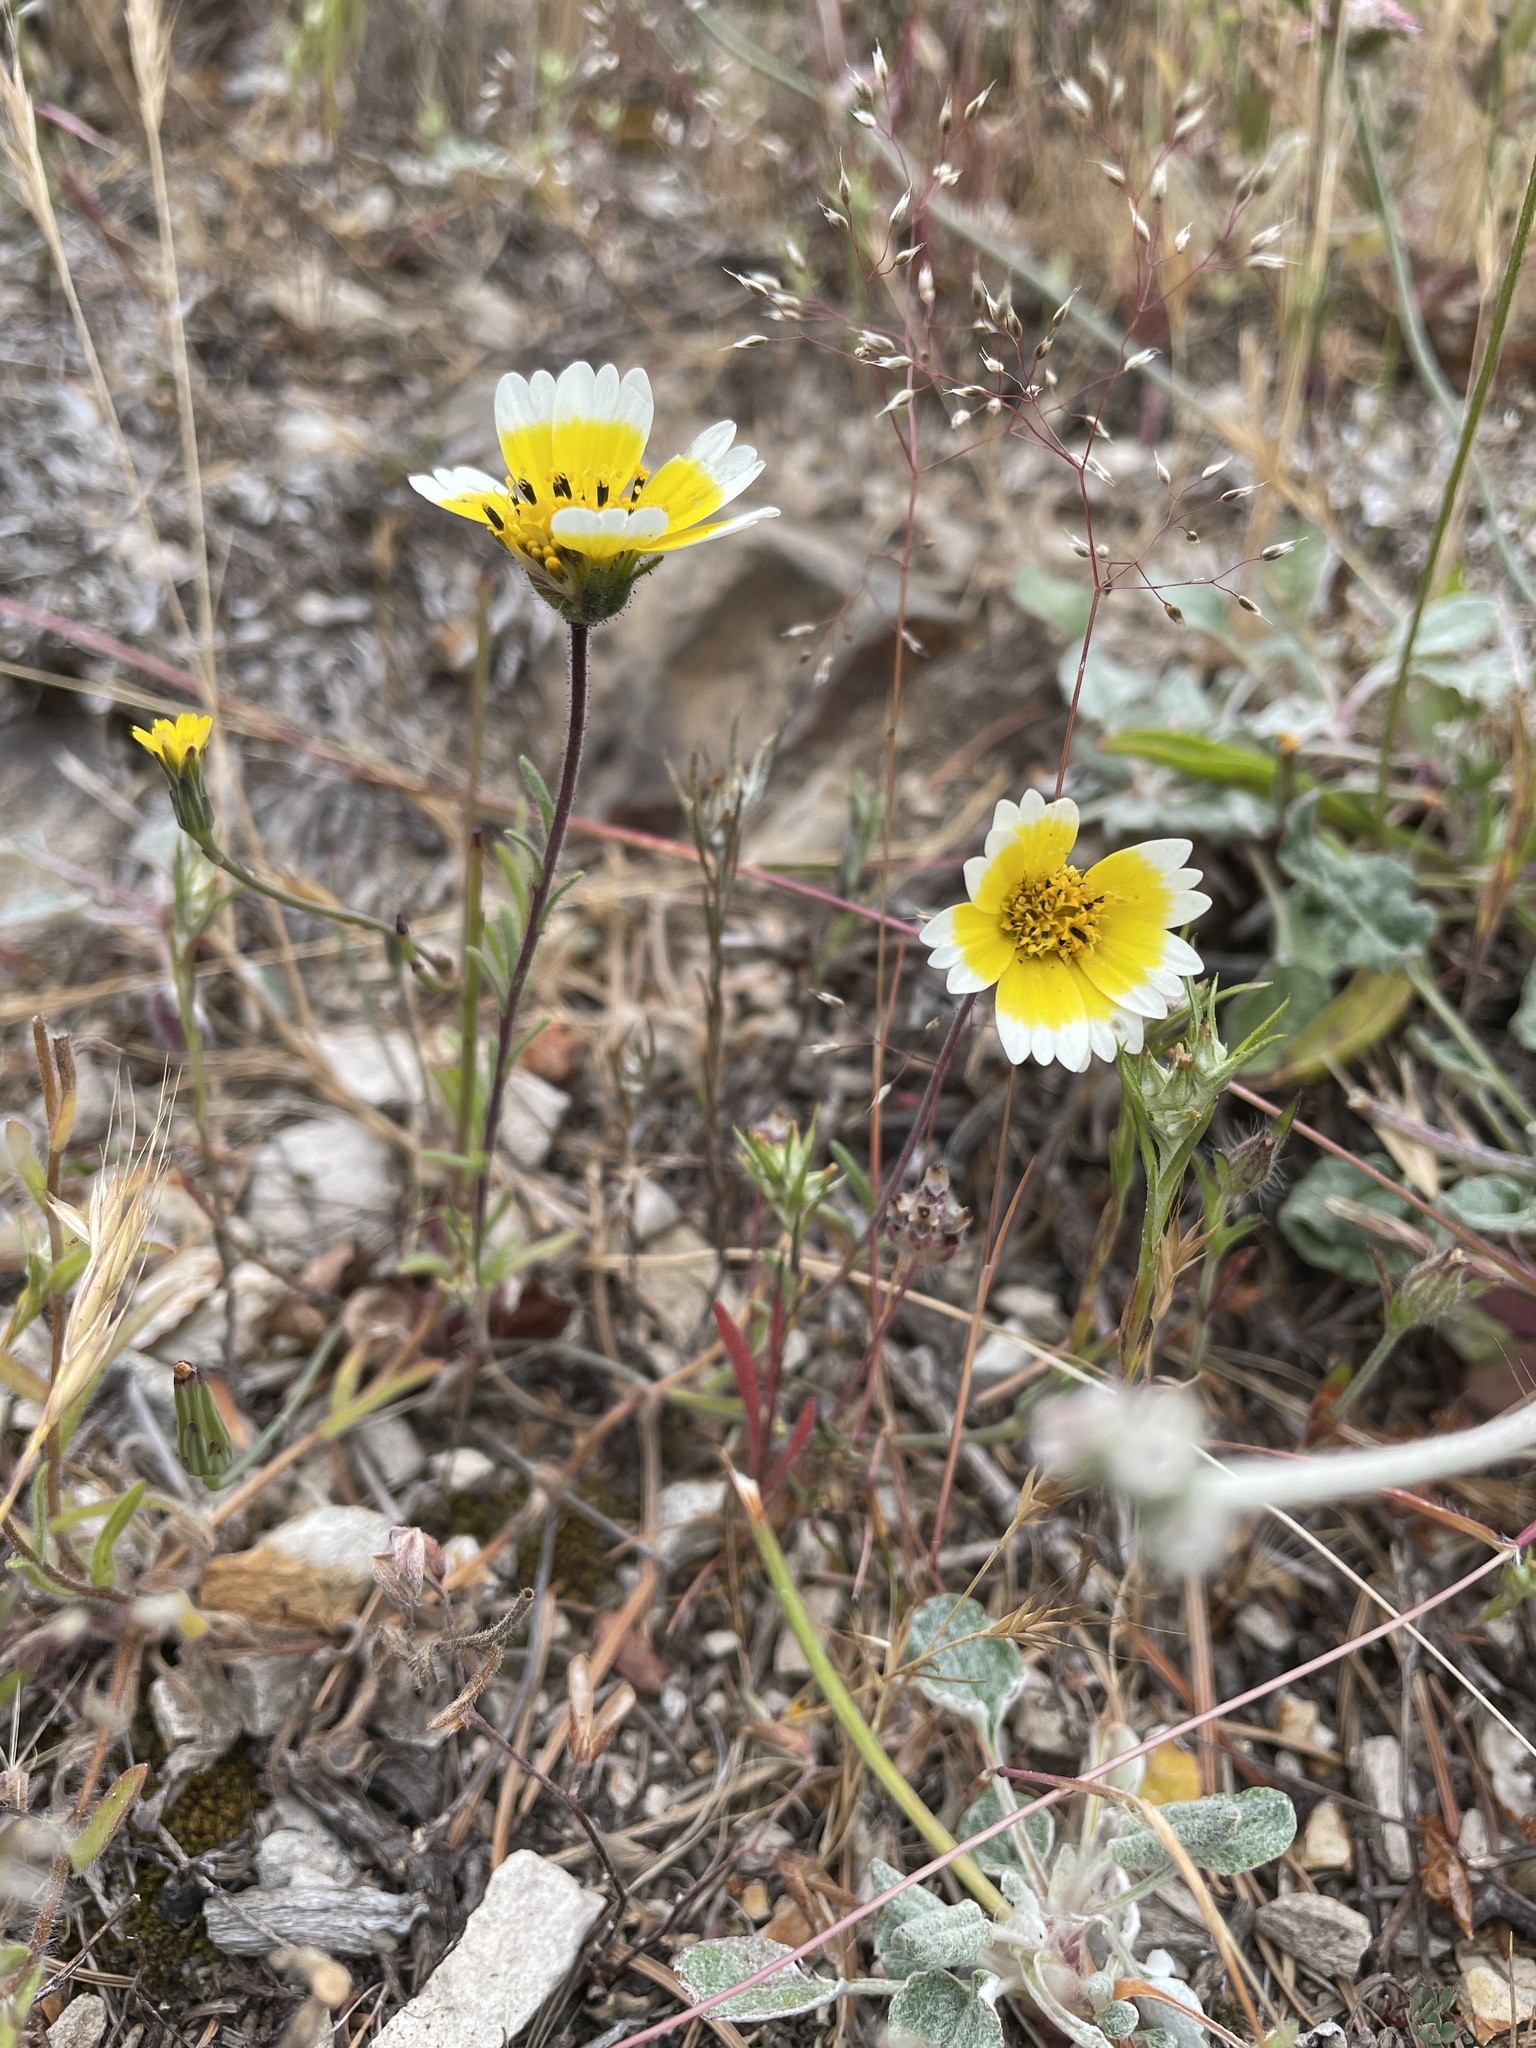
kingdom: Plantae
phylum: Tracheophyta
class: Magnoliopsida
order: Asterales
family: Asteraceae
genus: Layia
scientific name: Layia platyglossa
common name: Tidy-tips
